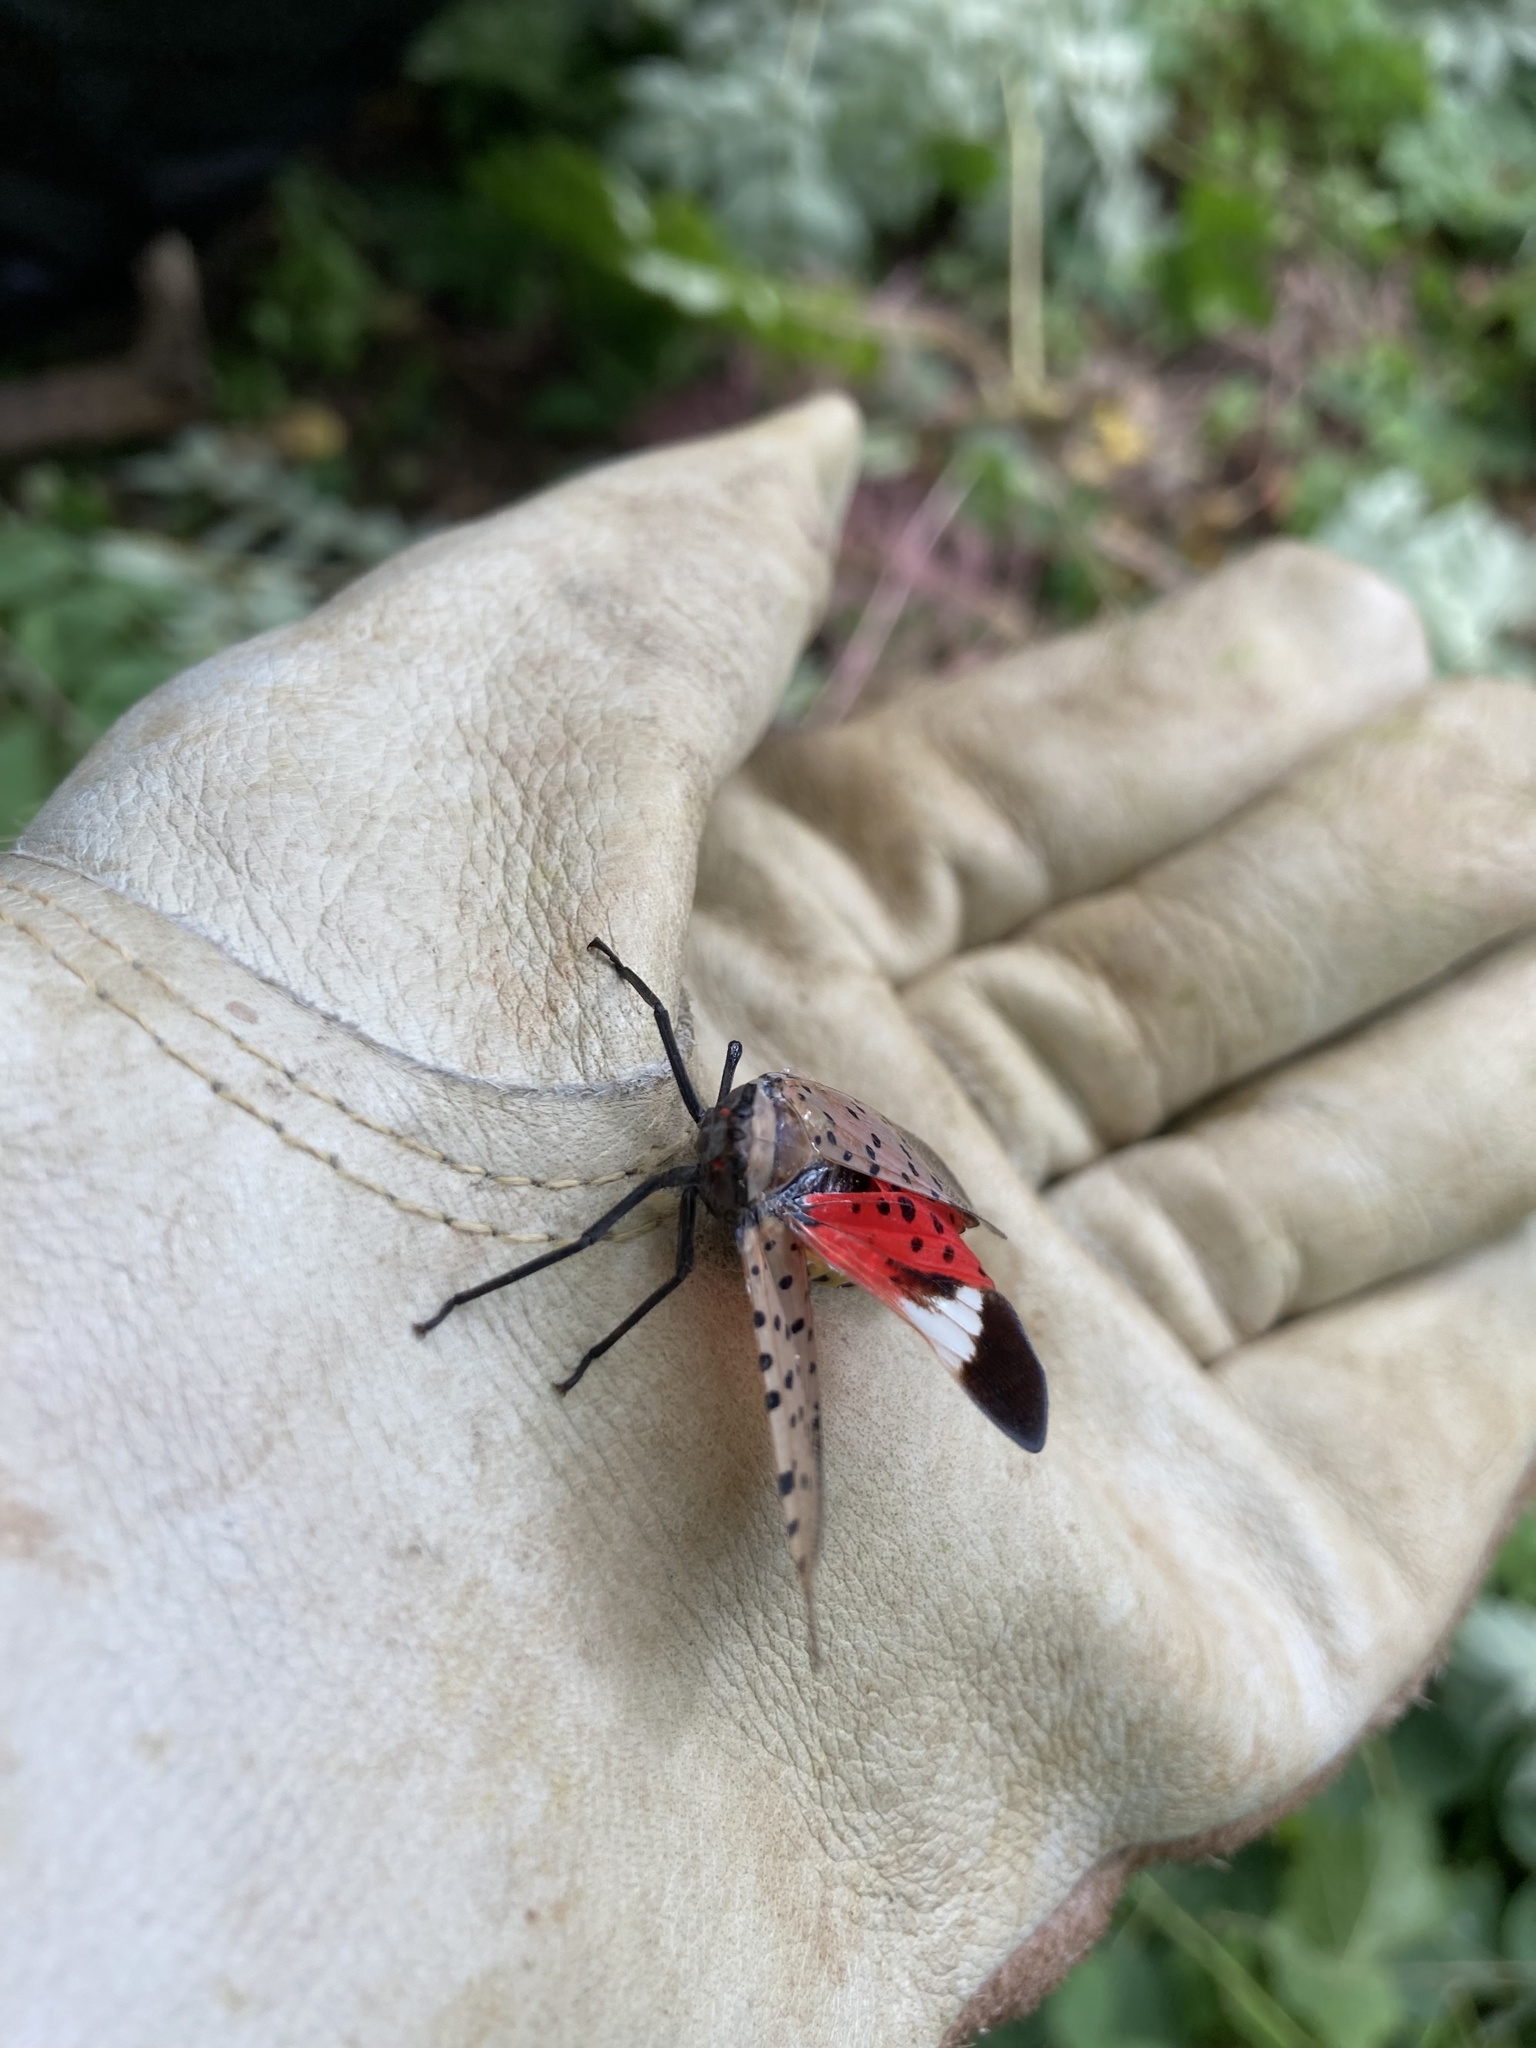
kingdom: Animalia
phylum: Arthropoda
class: Insecta
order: Hemiptera
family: Fulgoridae
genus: Lycorma
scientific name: Lycorma delicatula
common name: Spotted lanternfly
